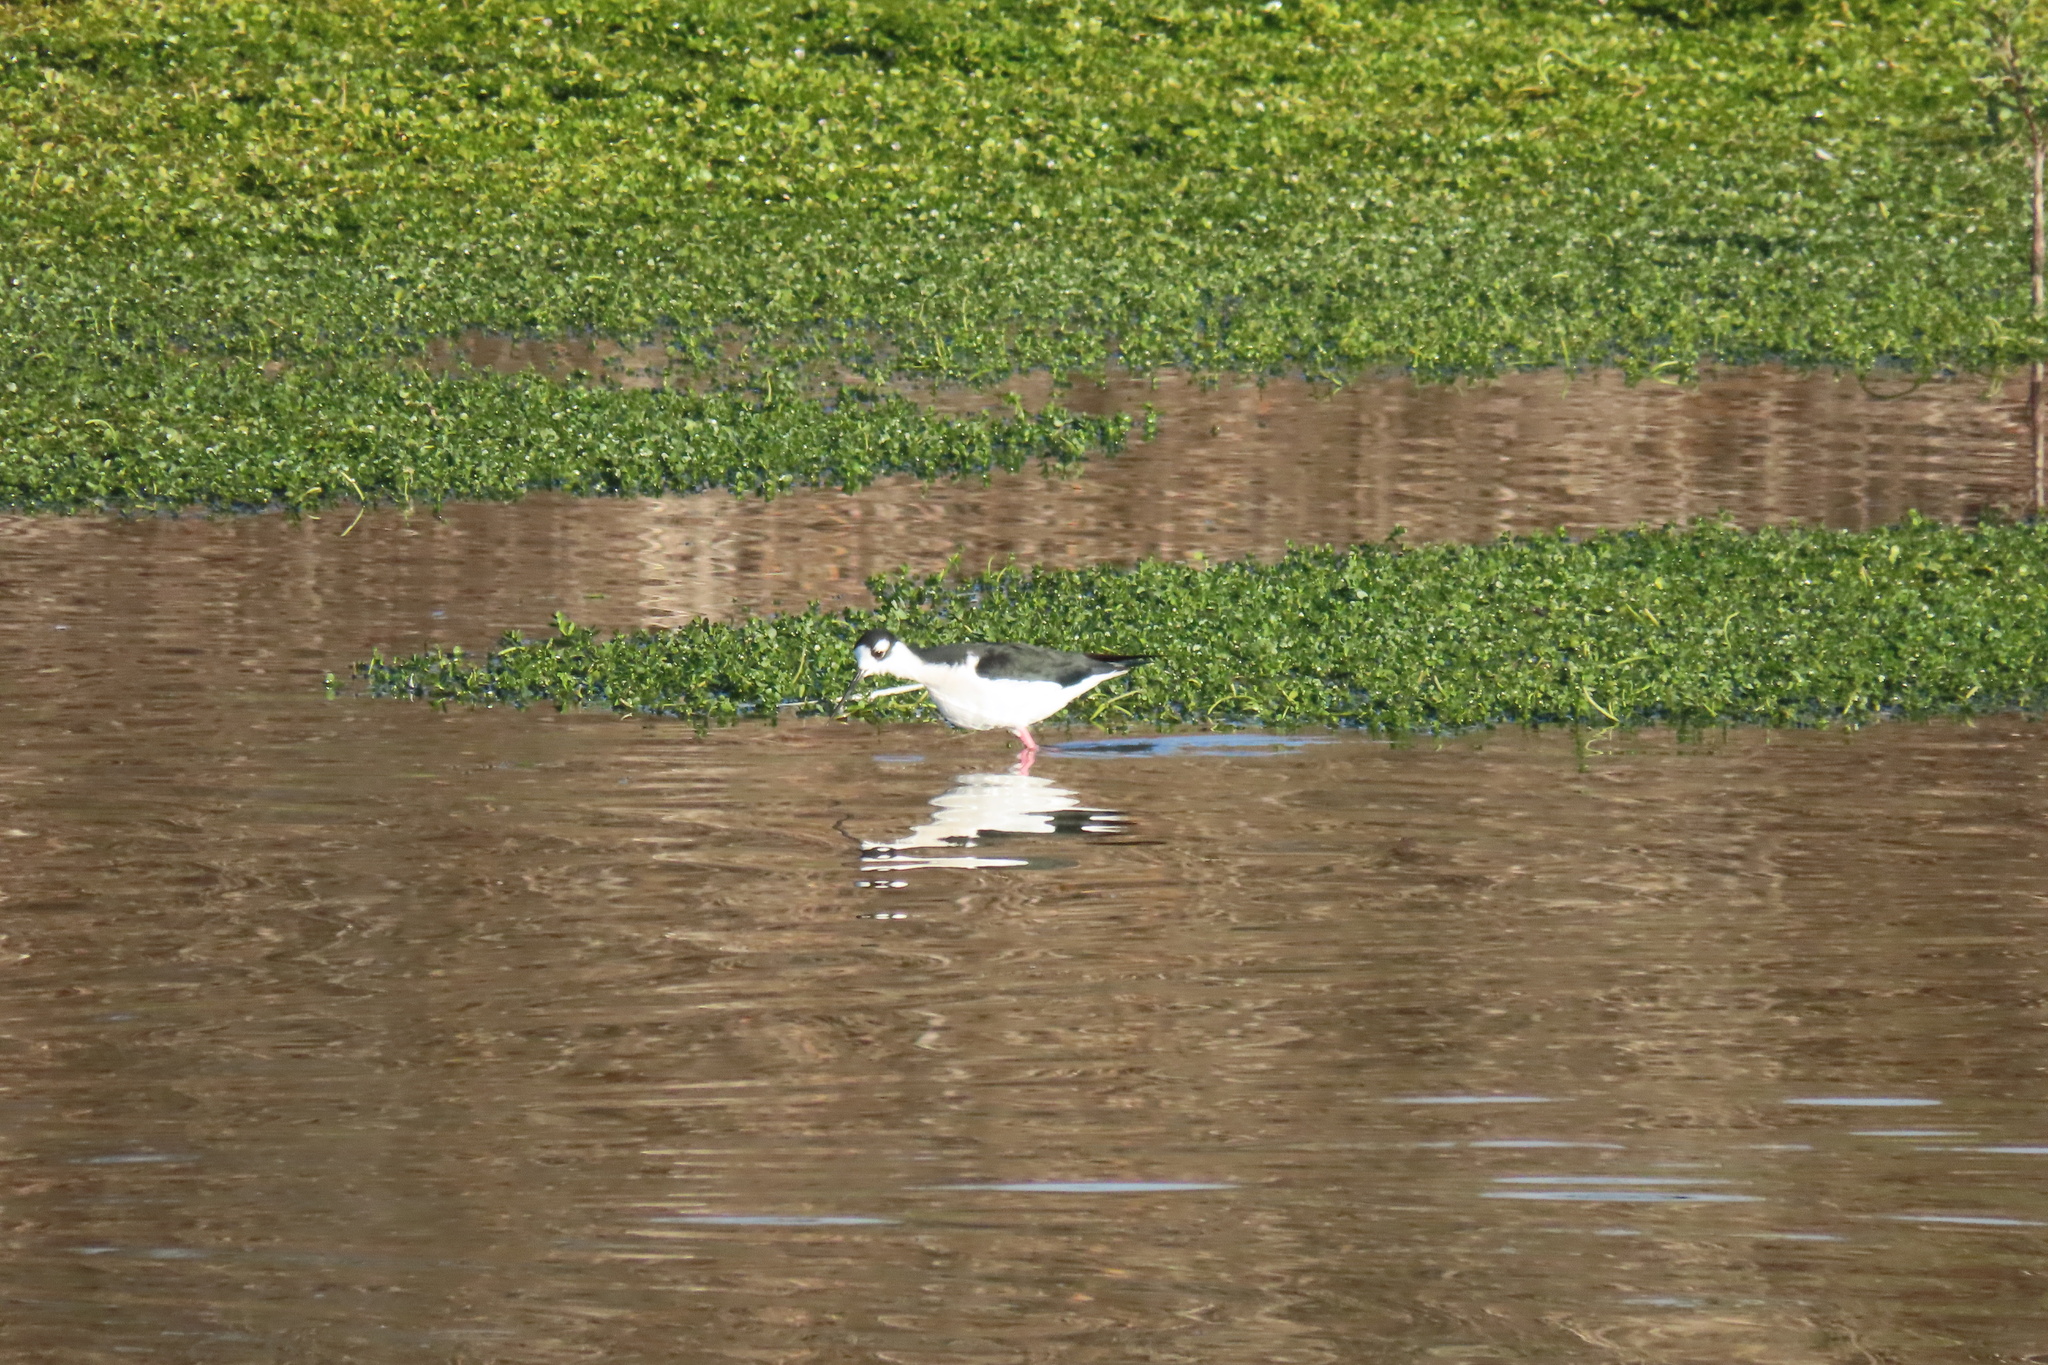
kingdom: Animalia
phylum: Chordata
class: Aves
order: Charadriiformes
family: Recurvirostridae
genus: Himantopus
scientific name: Himantopus mexicanus
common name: Black-necked stilt
